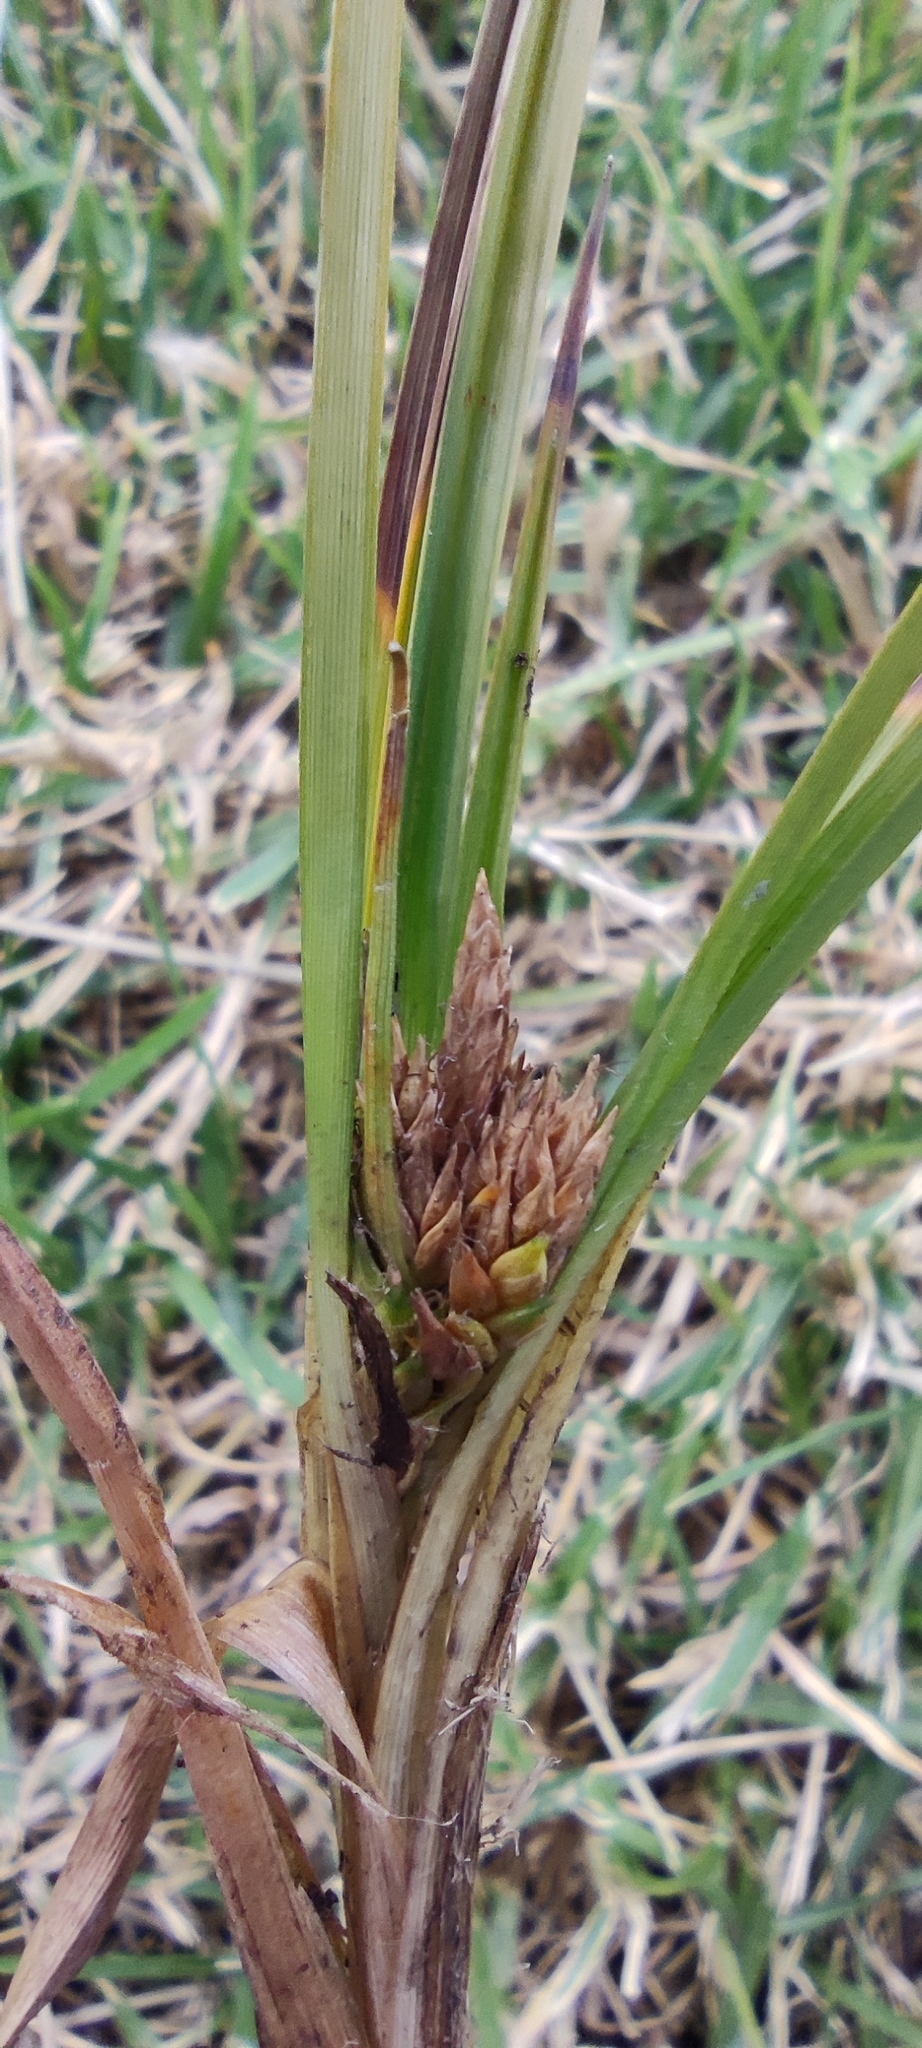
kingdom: Plantae
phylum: Tracheophyta
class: Liliopsida
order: Poales
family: Cyperaceae
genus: Carex
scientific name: Carex tamana
